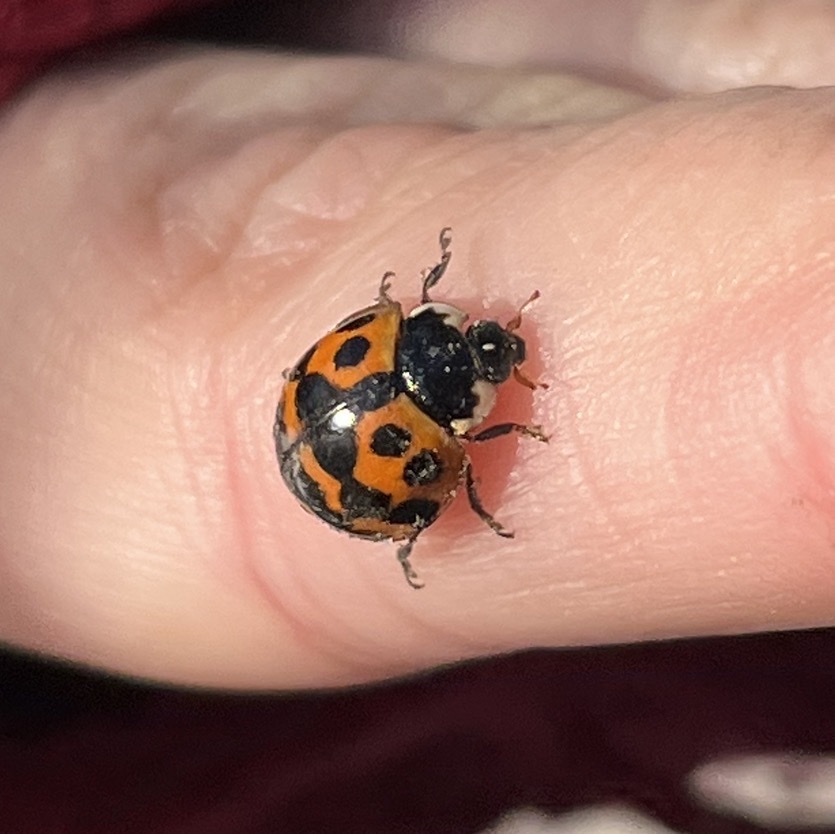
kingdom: Animalia
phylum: Arthropoda
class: Insecta
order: Coleoptera
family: Coccinellidae
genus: Harmonia
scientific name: Harmonia axyridis
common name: Harlequin ladybird
